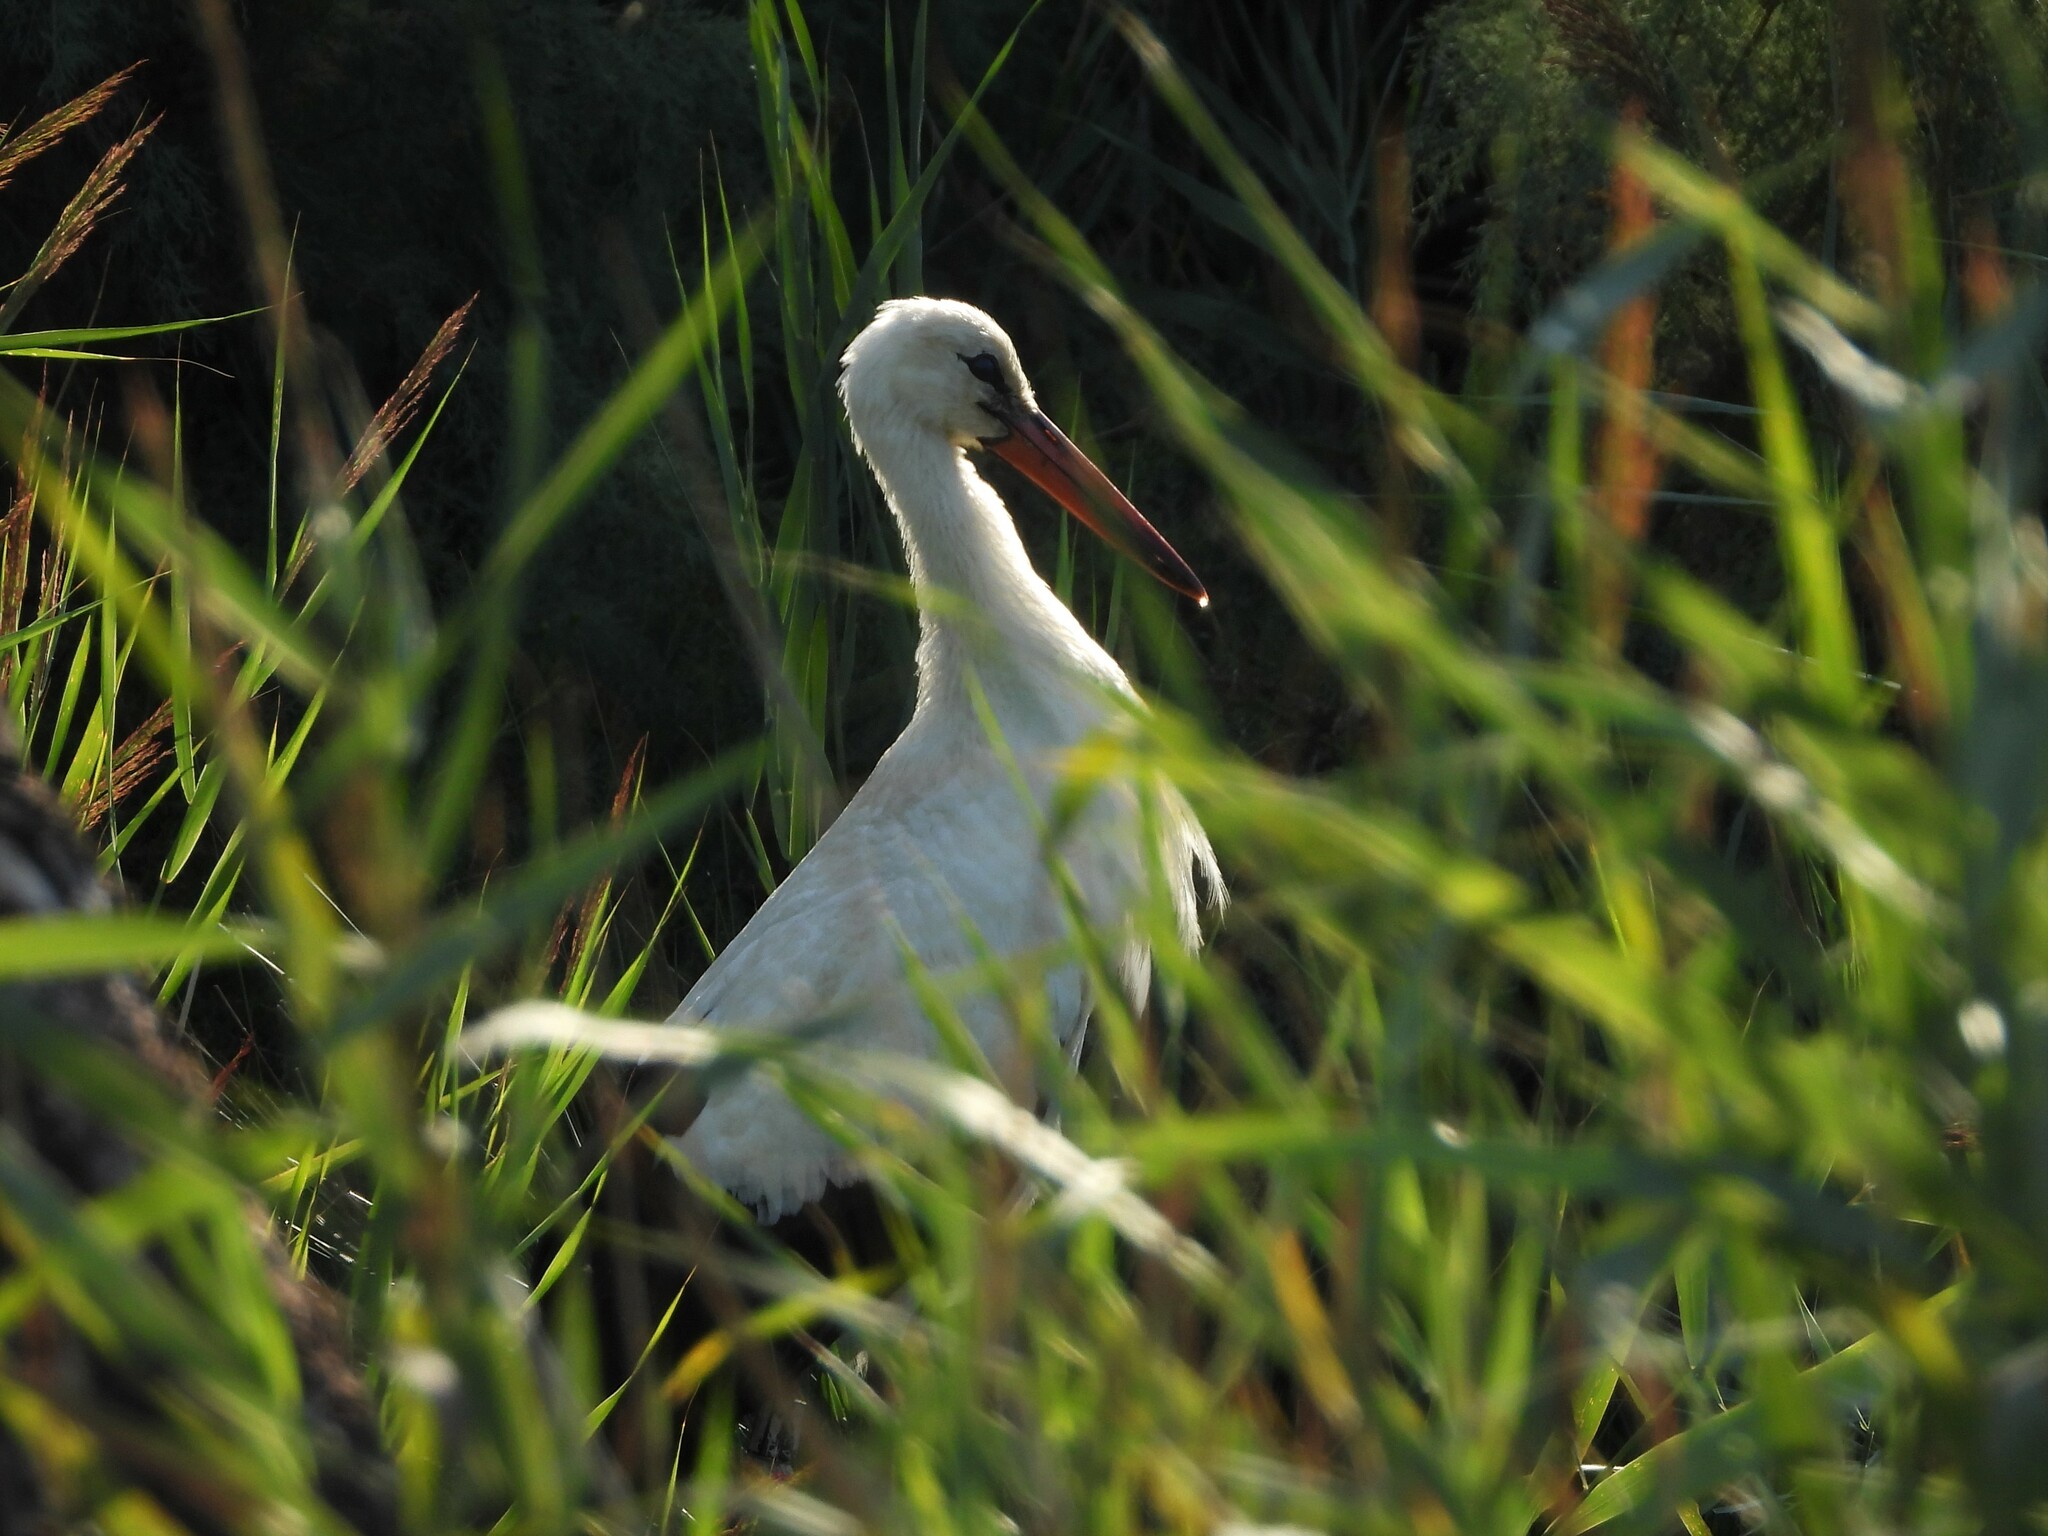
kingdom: Animalia
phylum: Chordata
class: Aves
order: Ciconiiformes
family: Ciconiidae
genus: Ciconia
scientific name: Ciconia ciconia
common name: White stork
